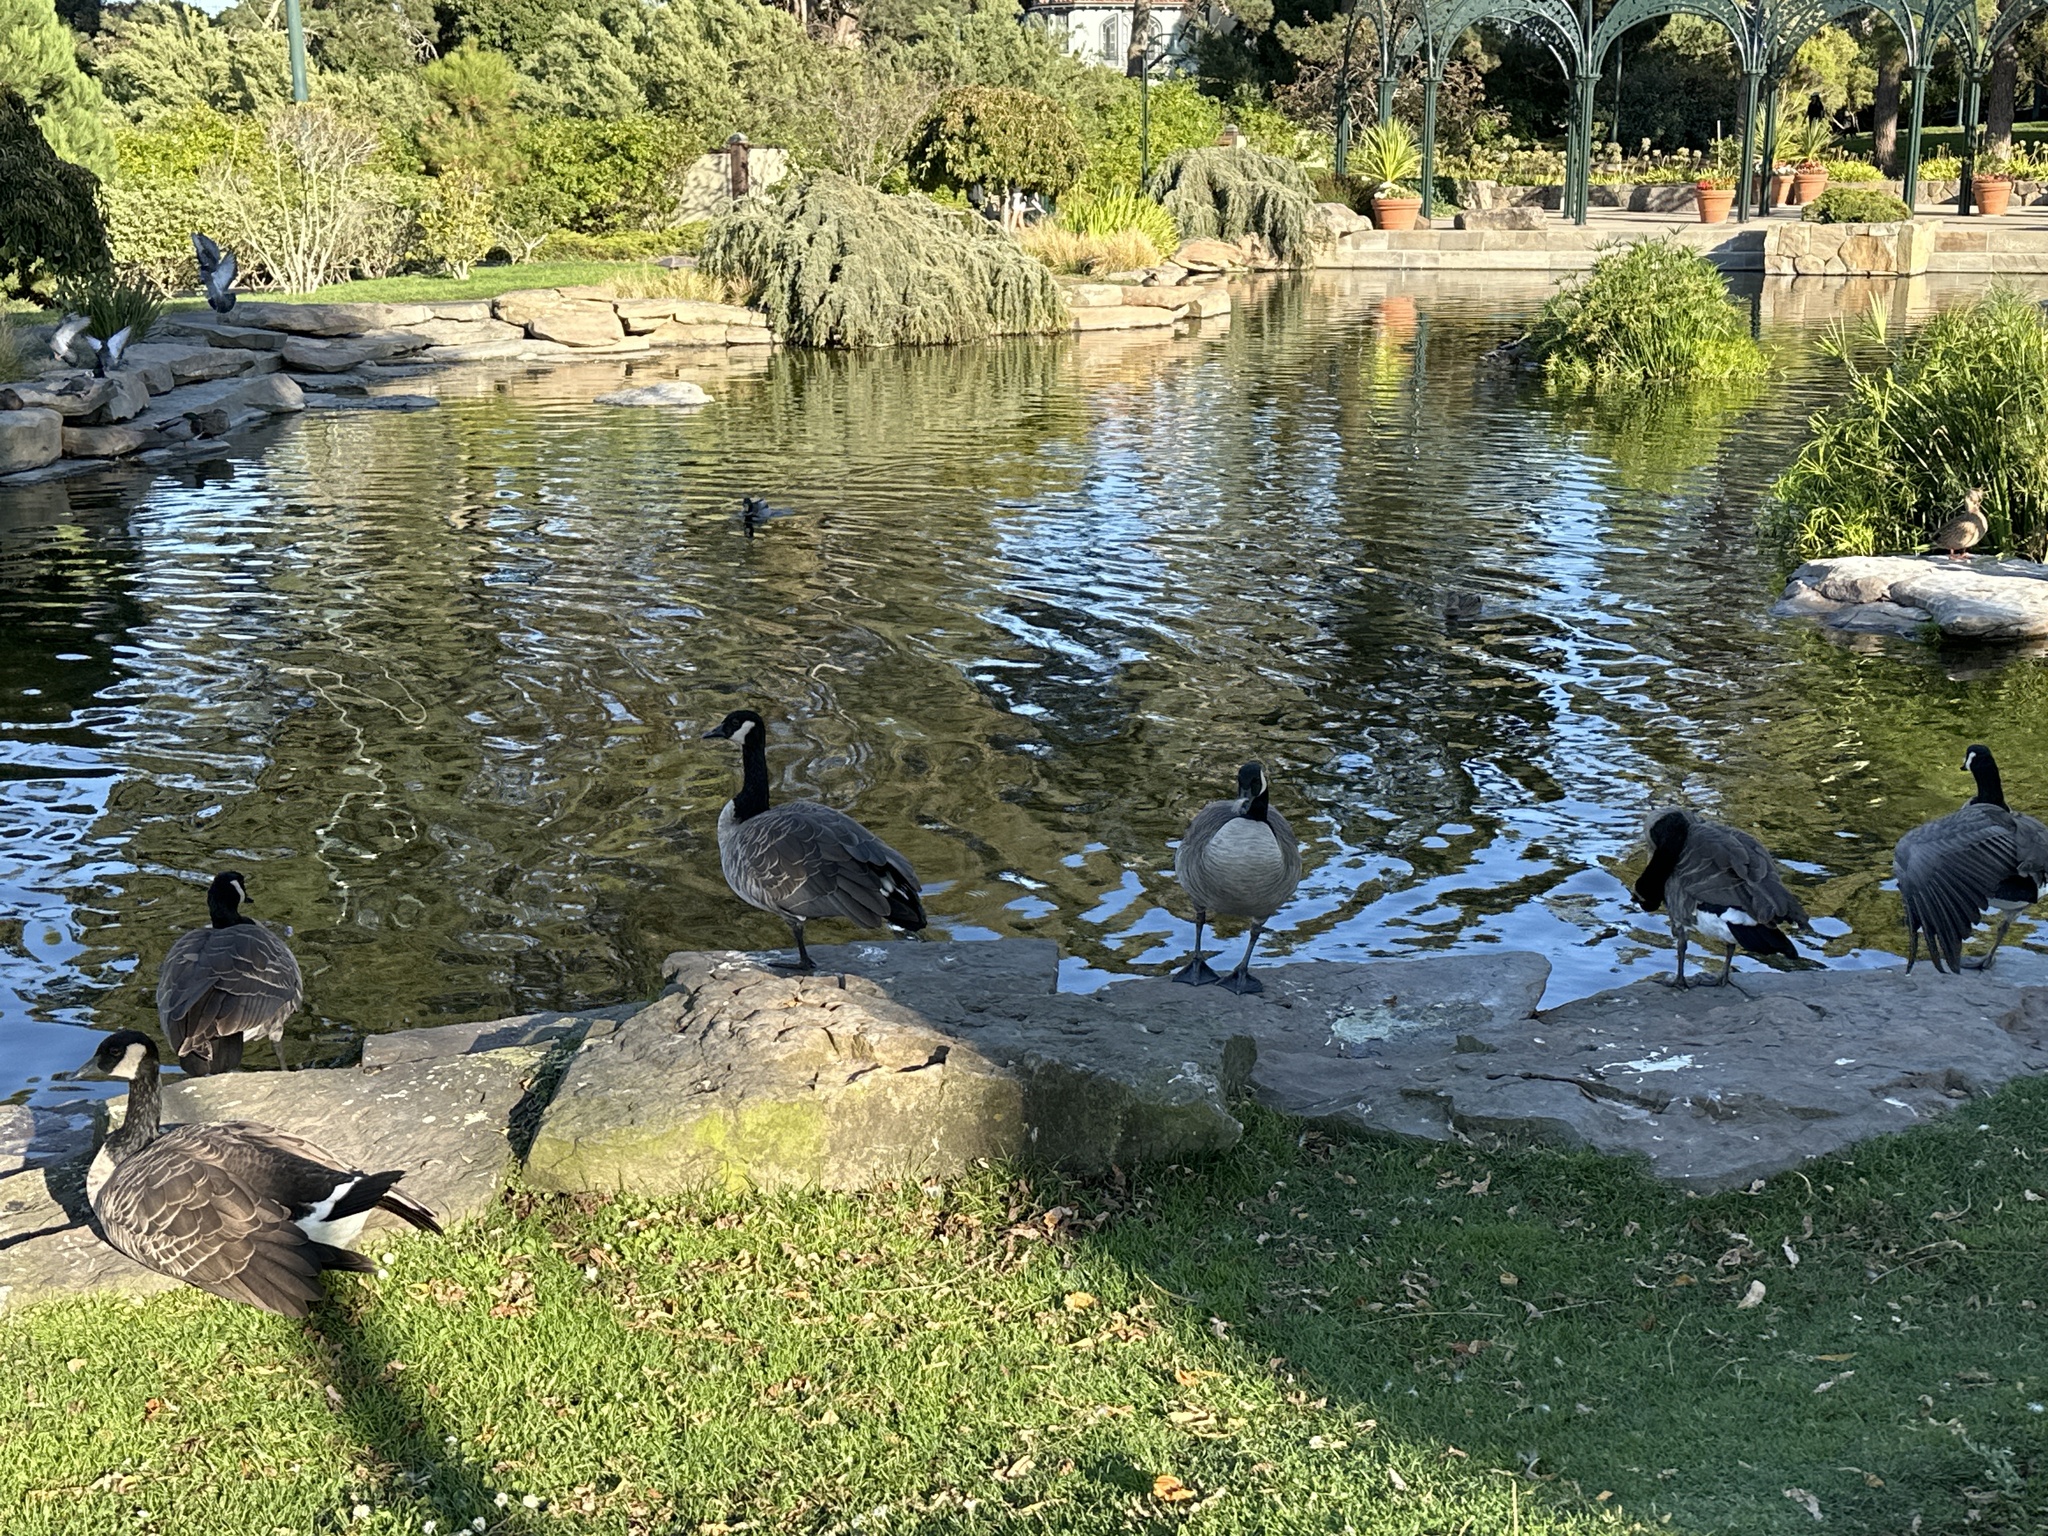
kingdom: Animalia
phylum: Chordata
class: Aves
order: Anseriformes
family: Anatidae
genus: Branta
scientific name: Branta canadensis
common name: Canada goose
